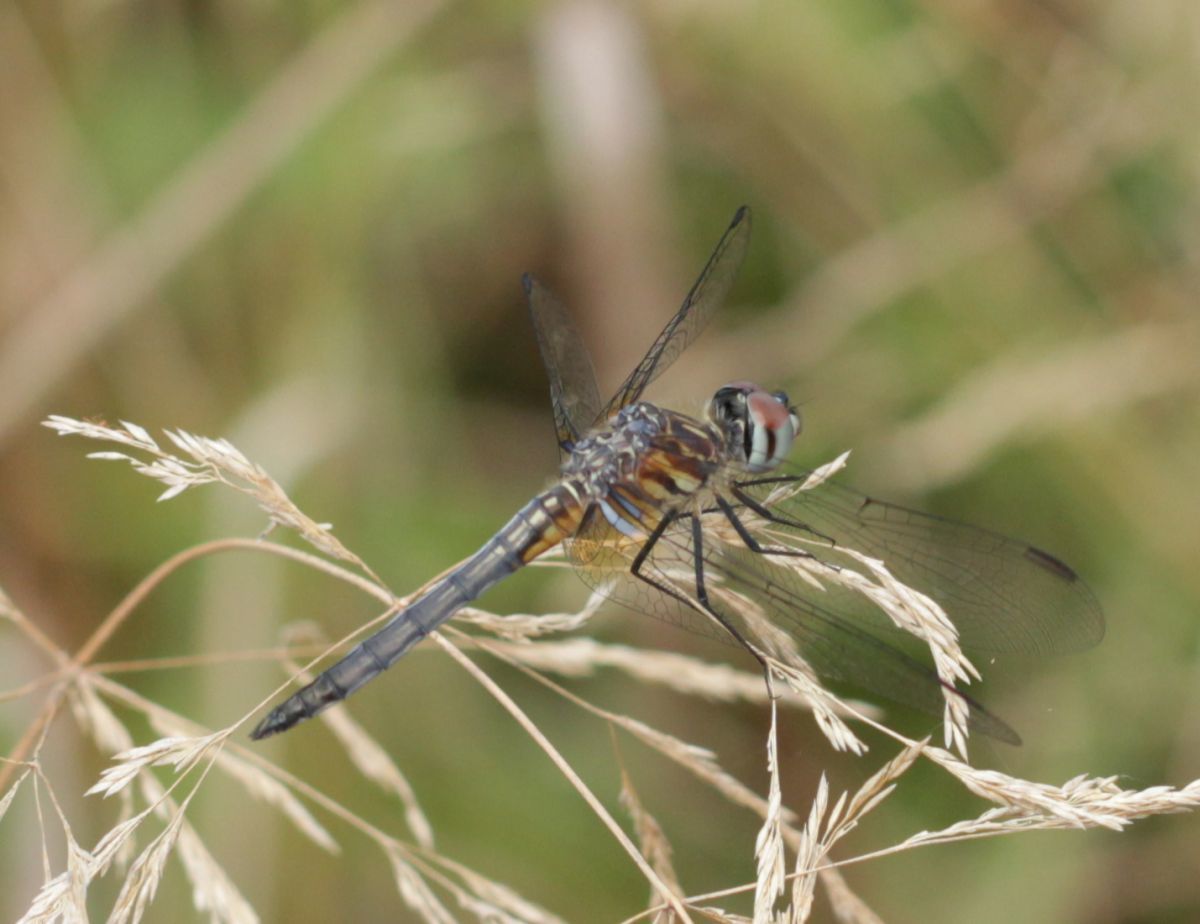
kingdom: Animalia
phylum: Arthropoda
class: Insecta
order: Odonata
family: Libellulidae
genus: Pachydiplax
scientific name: Pachydiplax longipennis
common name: Blue dasher
